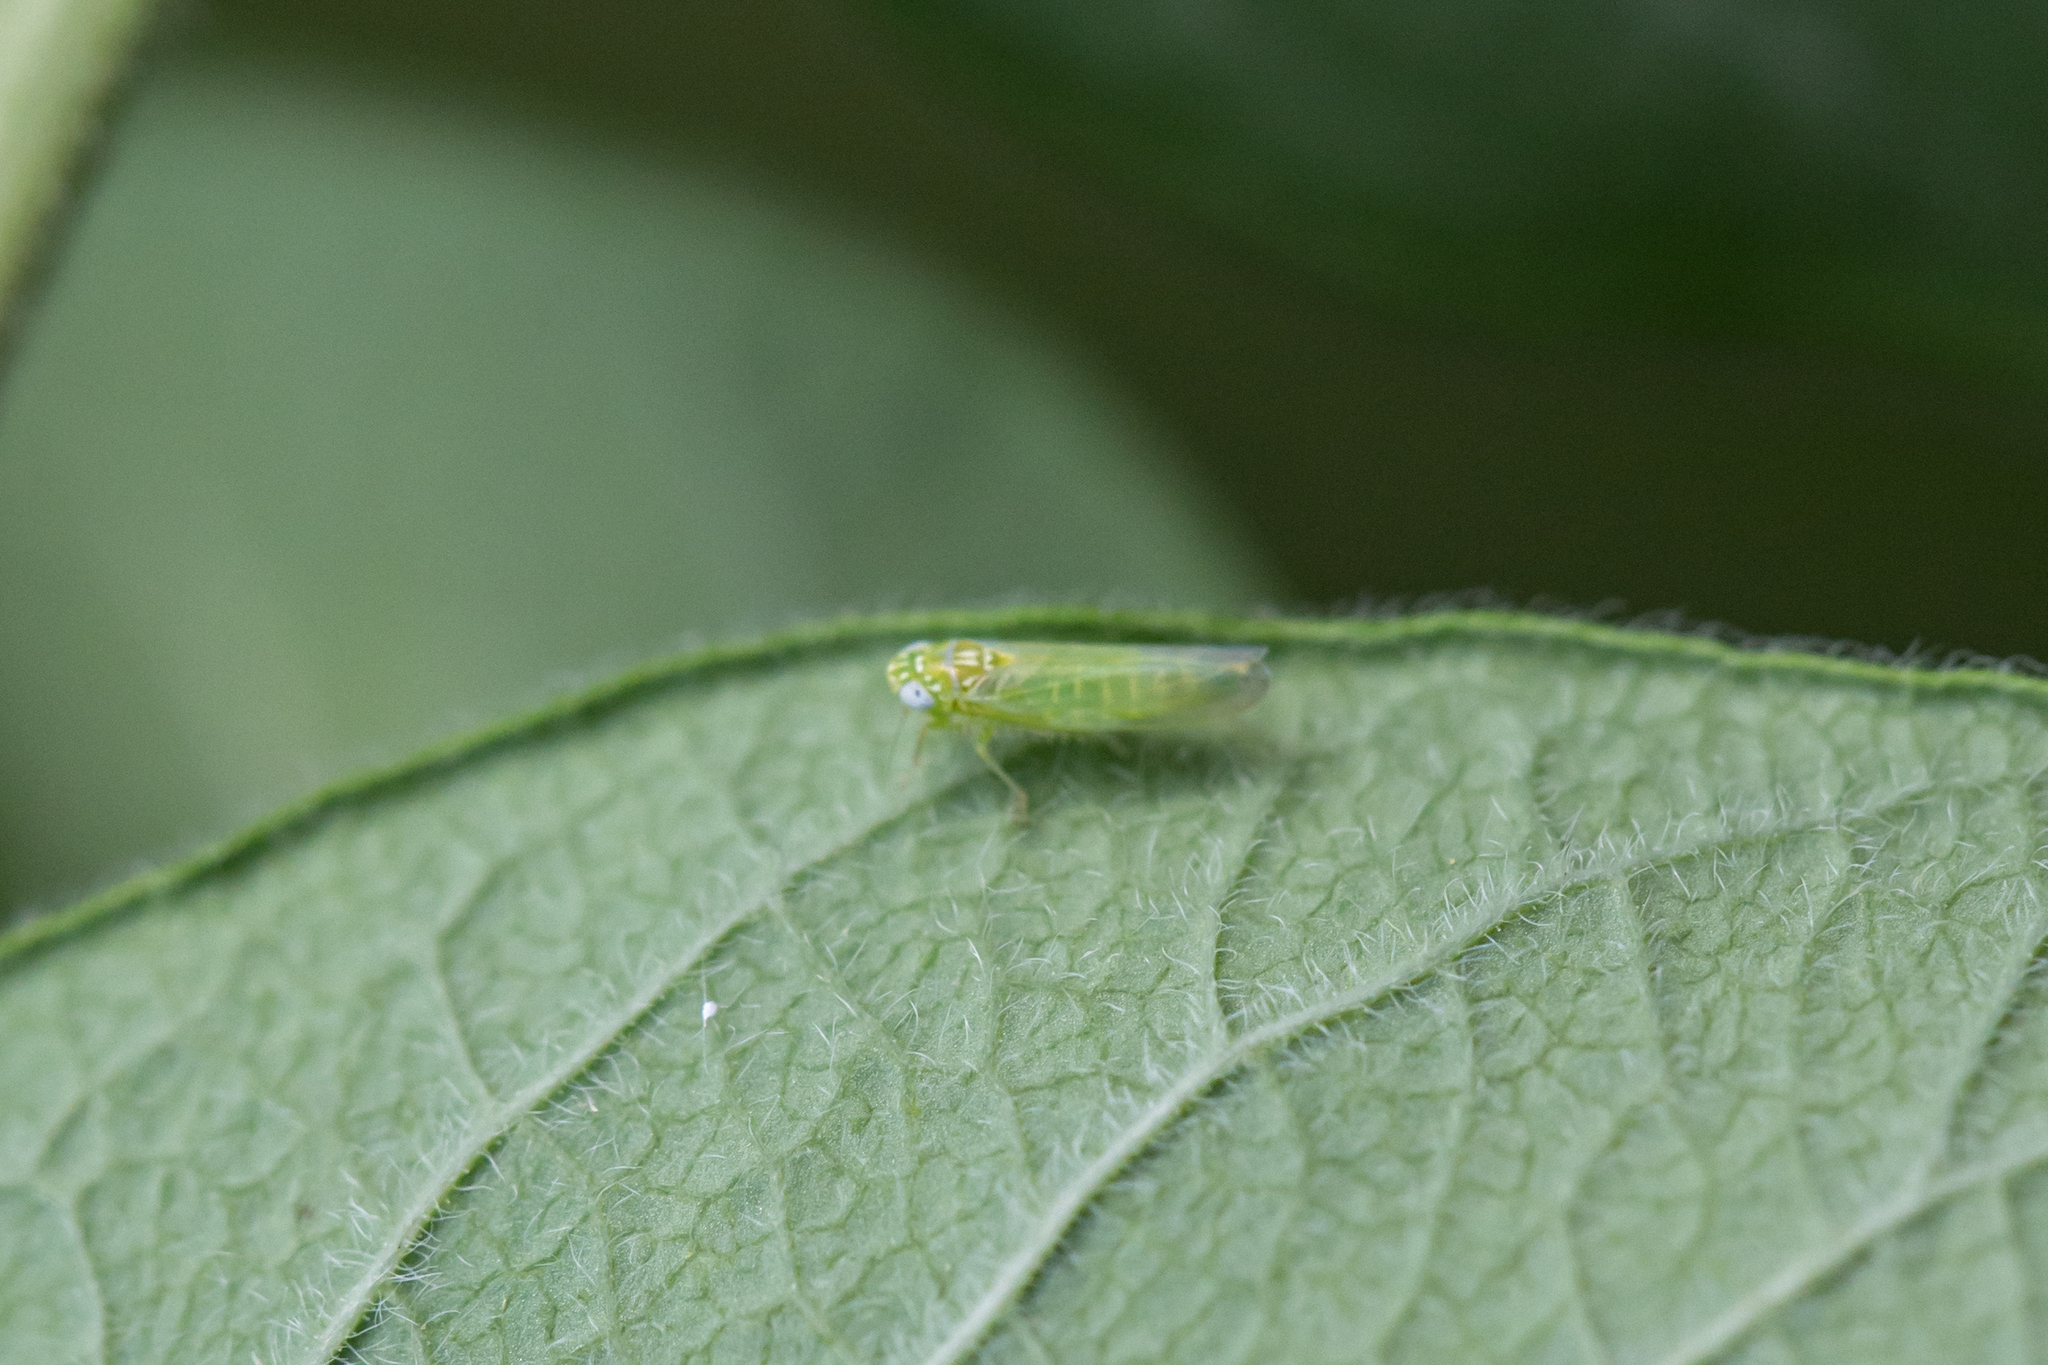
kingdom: Animalia
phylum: Arthropoda
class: Insecta
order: Hemiptera
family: Cicadellidae
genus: Empoasca
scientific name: Empoasca fabae
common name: Potato leafhopper
